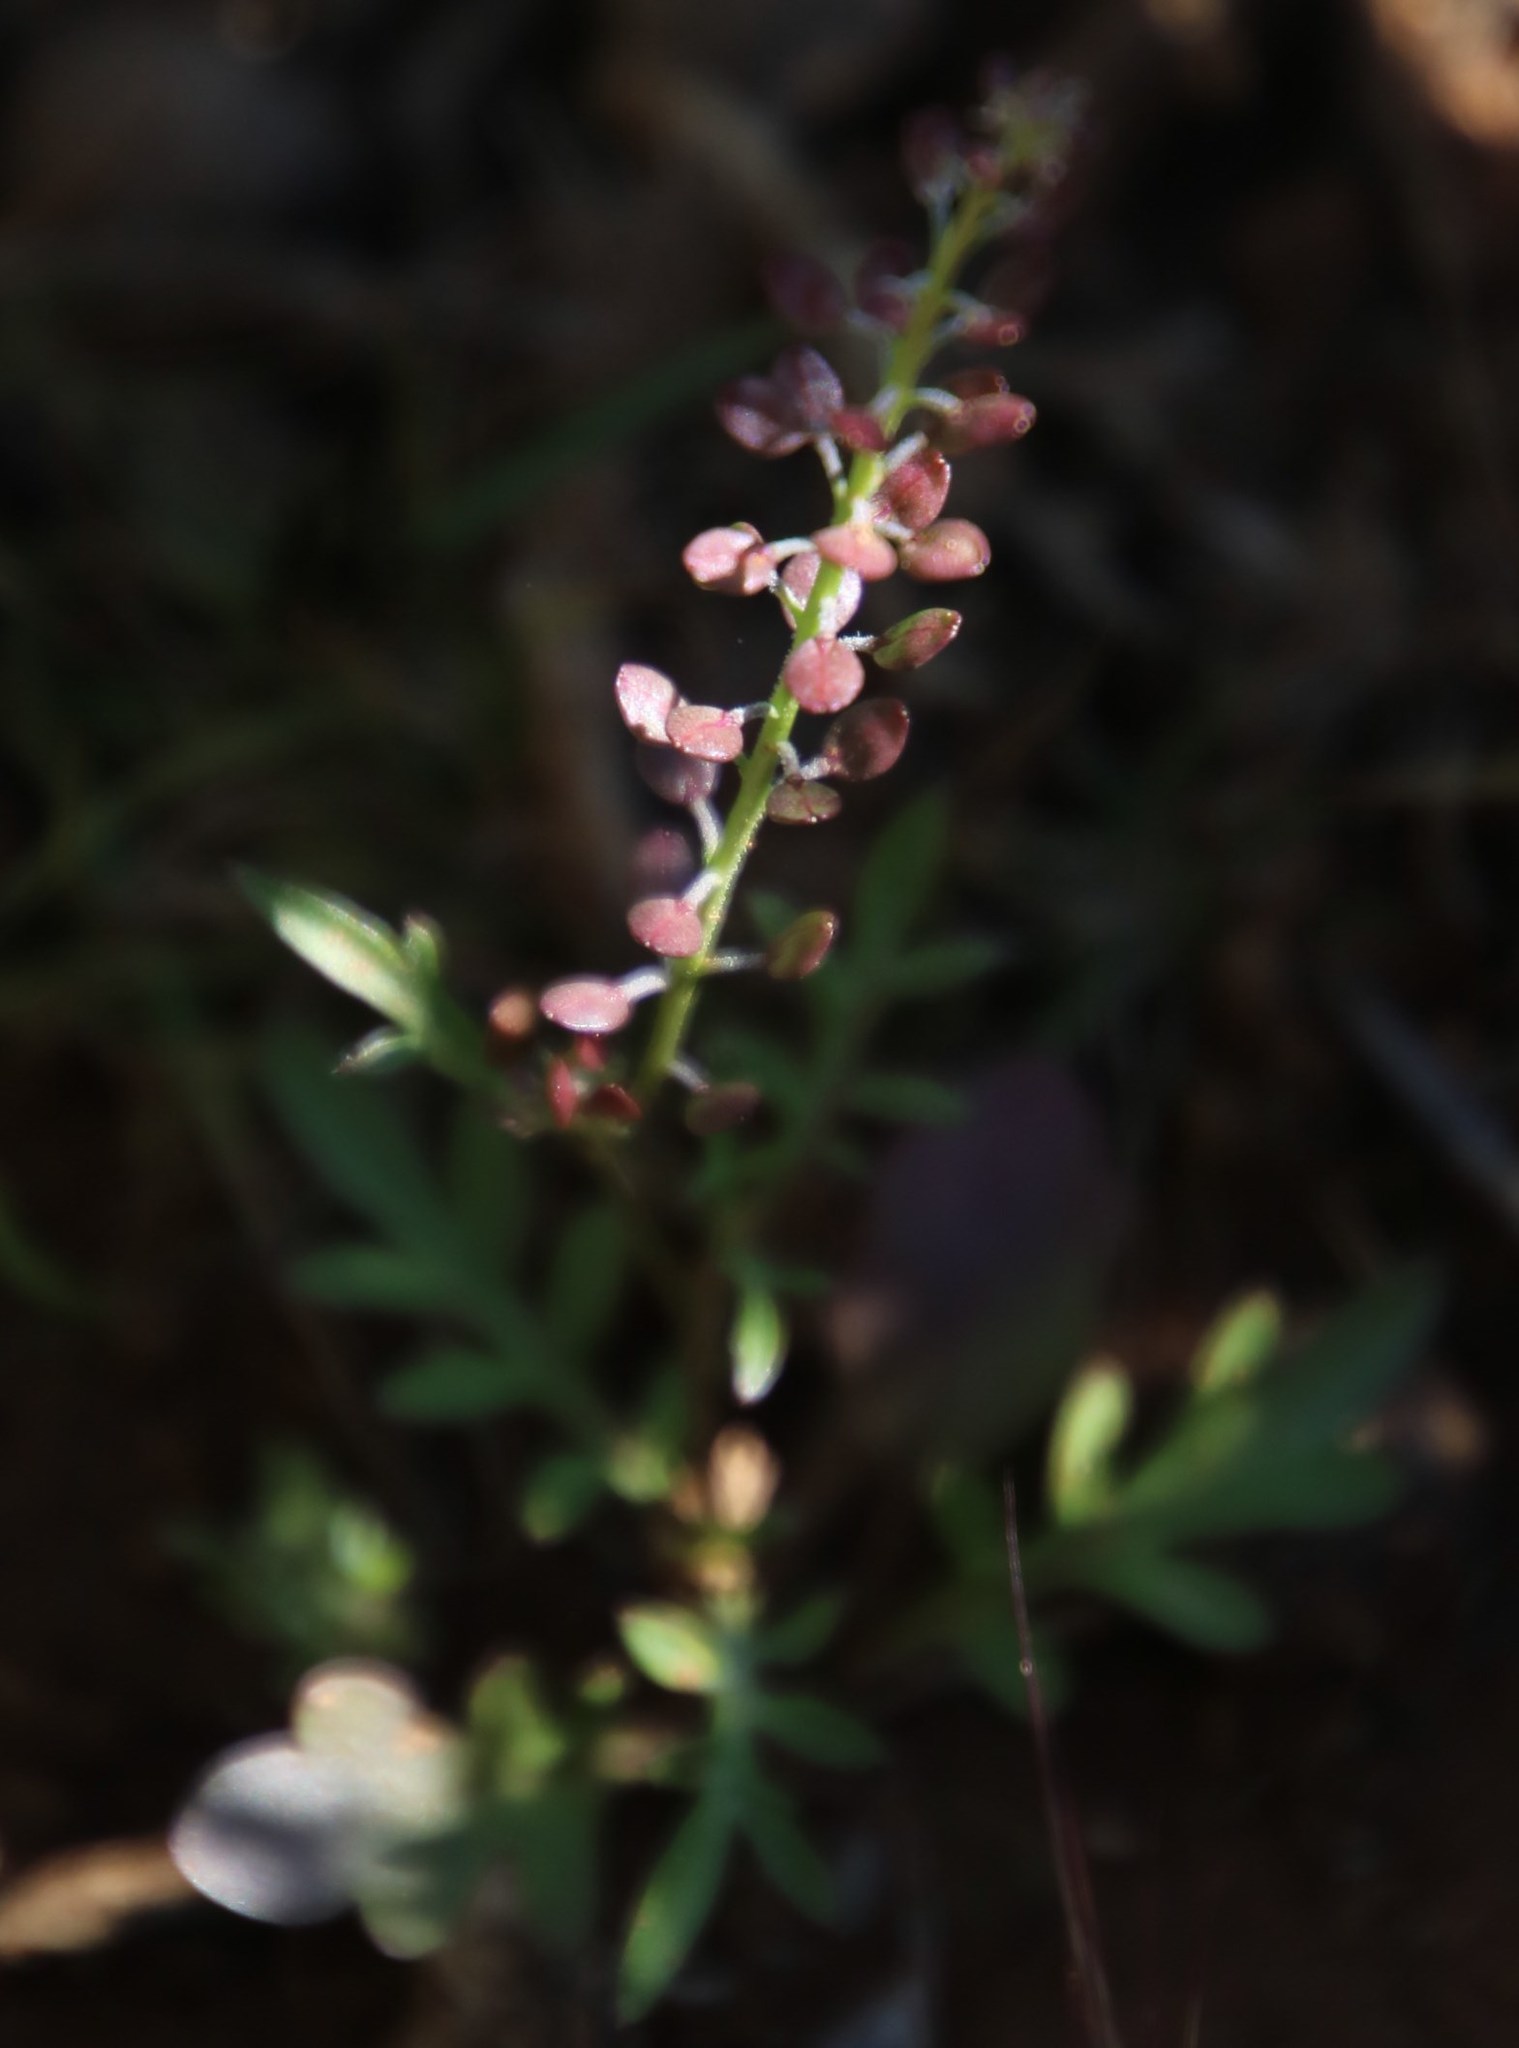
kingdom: Plantae
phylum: Tracheophyta
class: Magnoliopsida
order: Brassicales
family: Brassicaceae
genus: Lepidium
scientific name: Lepidium divaricatum
